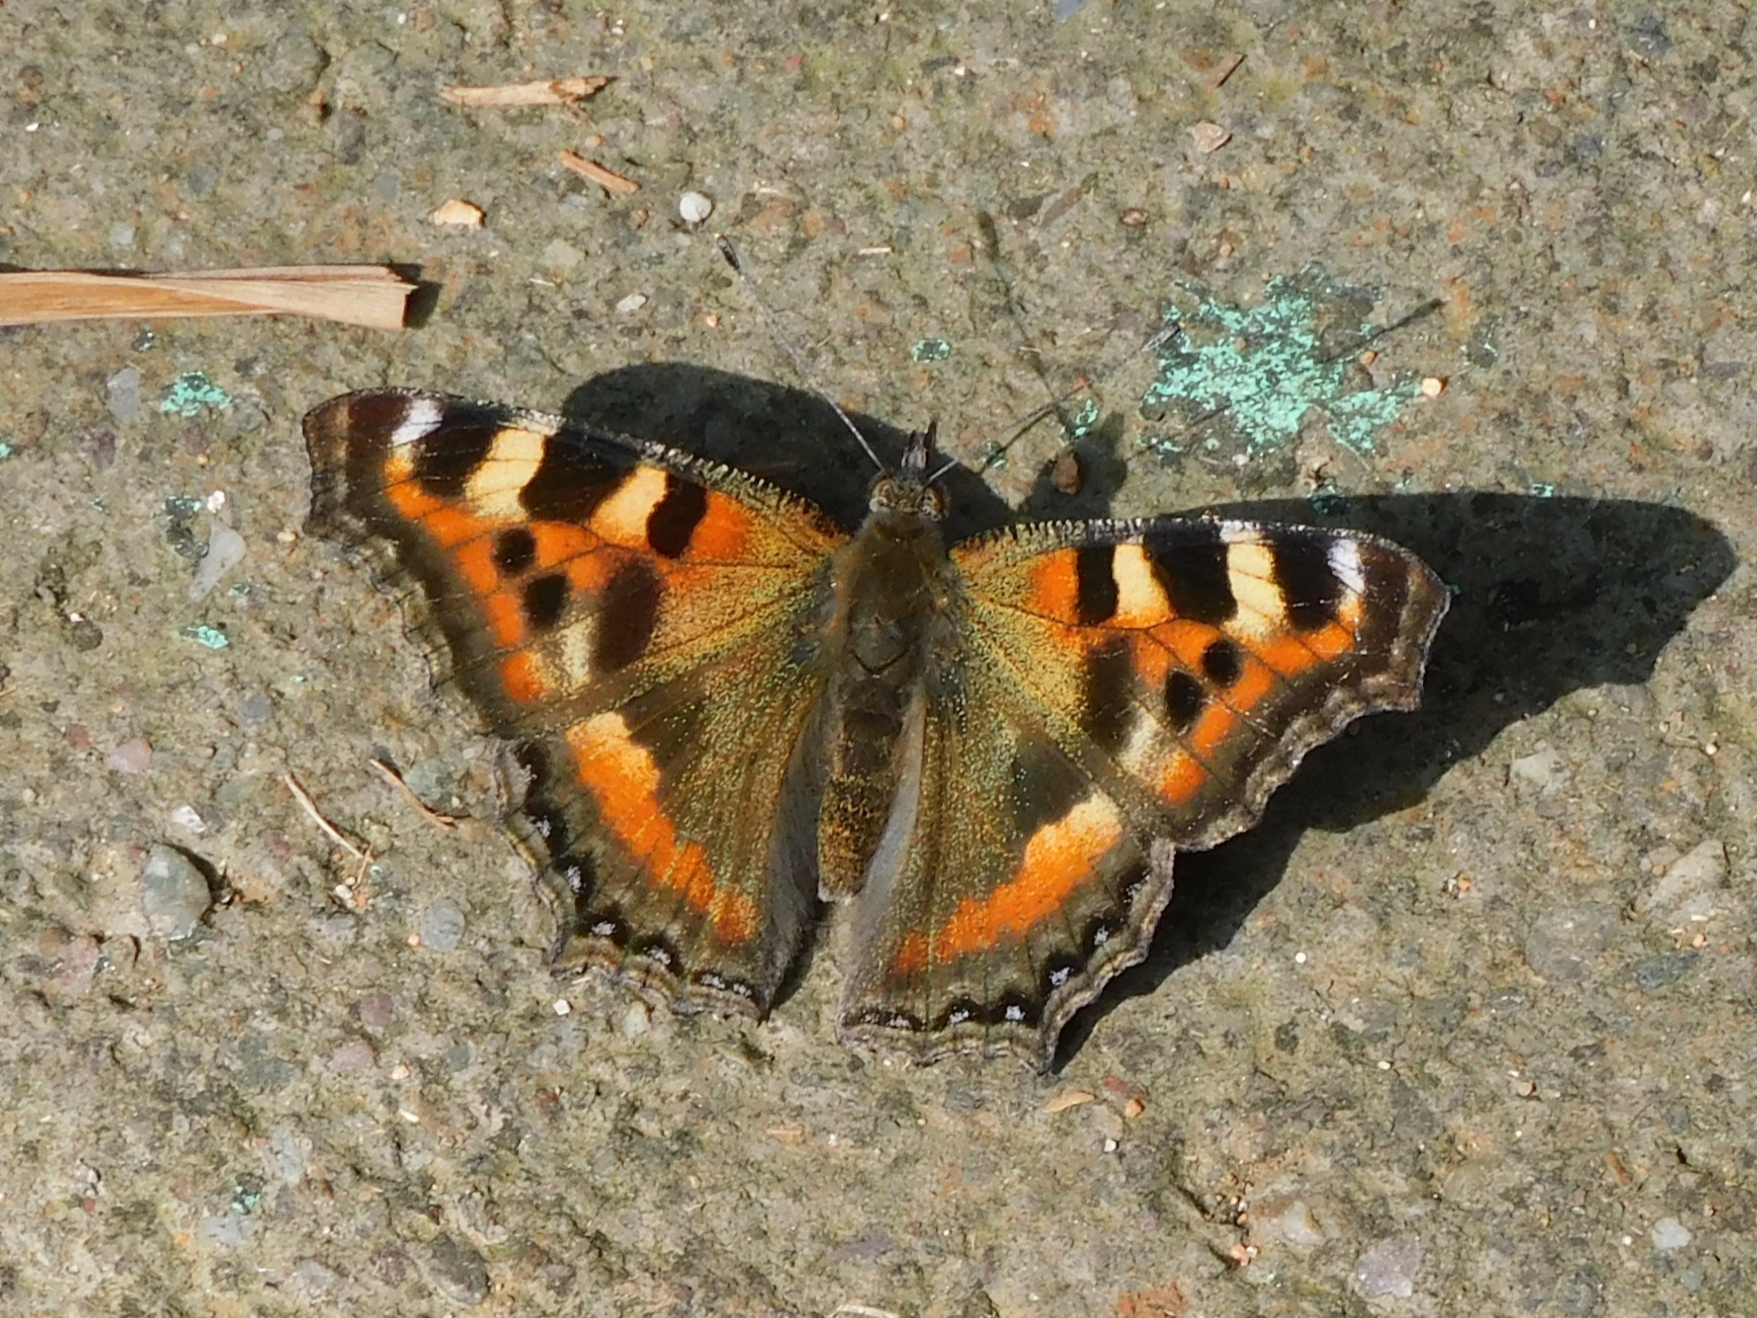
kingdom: Animalia
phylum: Arthropoda
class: Insecta
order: Lepidoptera
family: Nymphalidae
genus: Aglais
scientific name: Aglais caschmirensis
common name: Indian tortoiseshell
